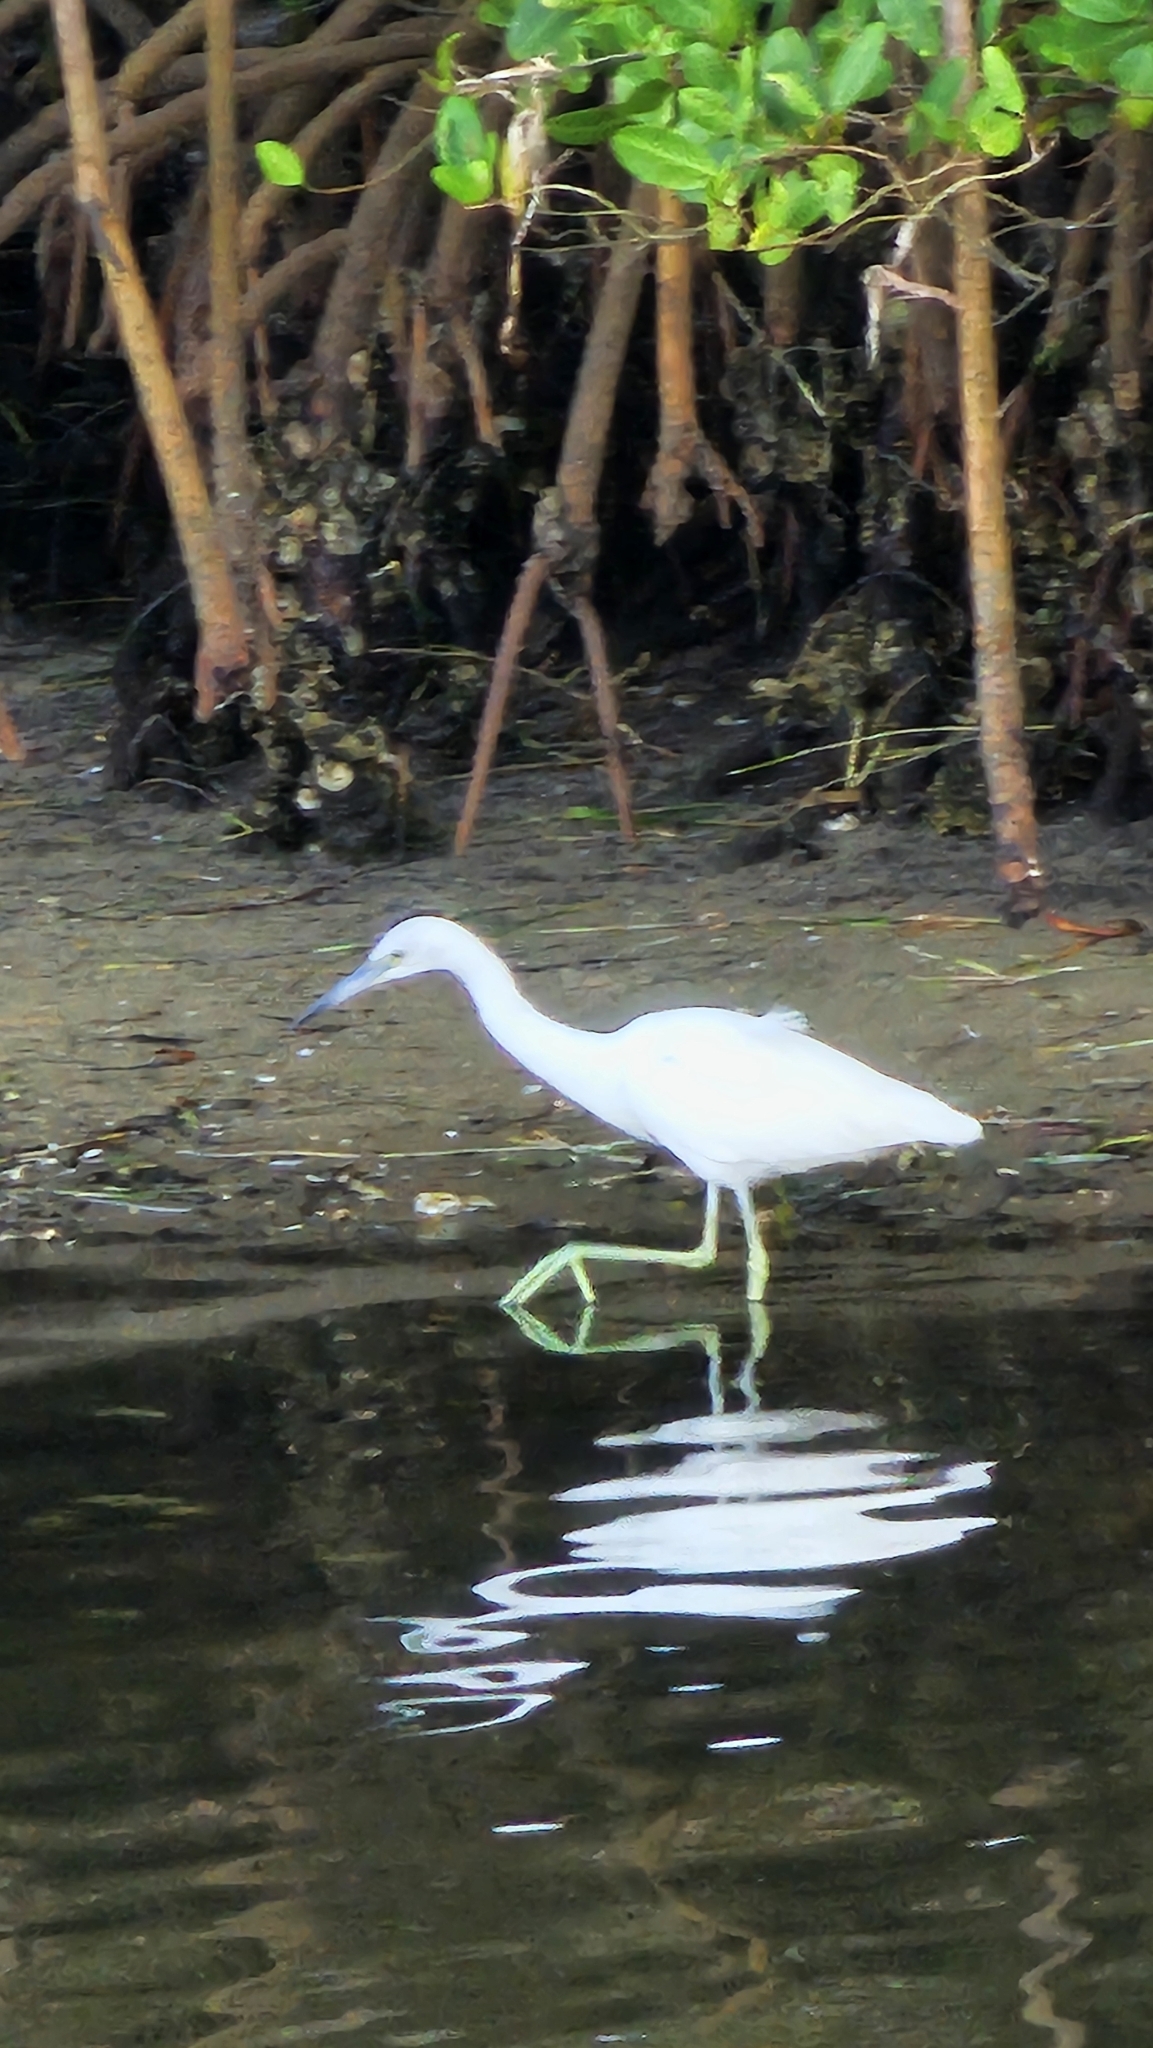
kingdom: Animalia
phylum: Chordata
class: Aves
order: Pelecaniformes
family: Ardeidae
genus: Egretta
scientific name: Egretta caerulea
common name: Little blue heron
